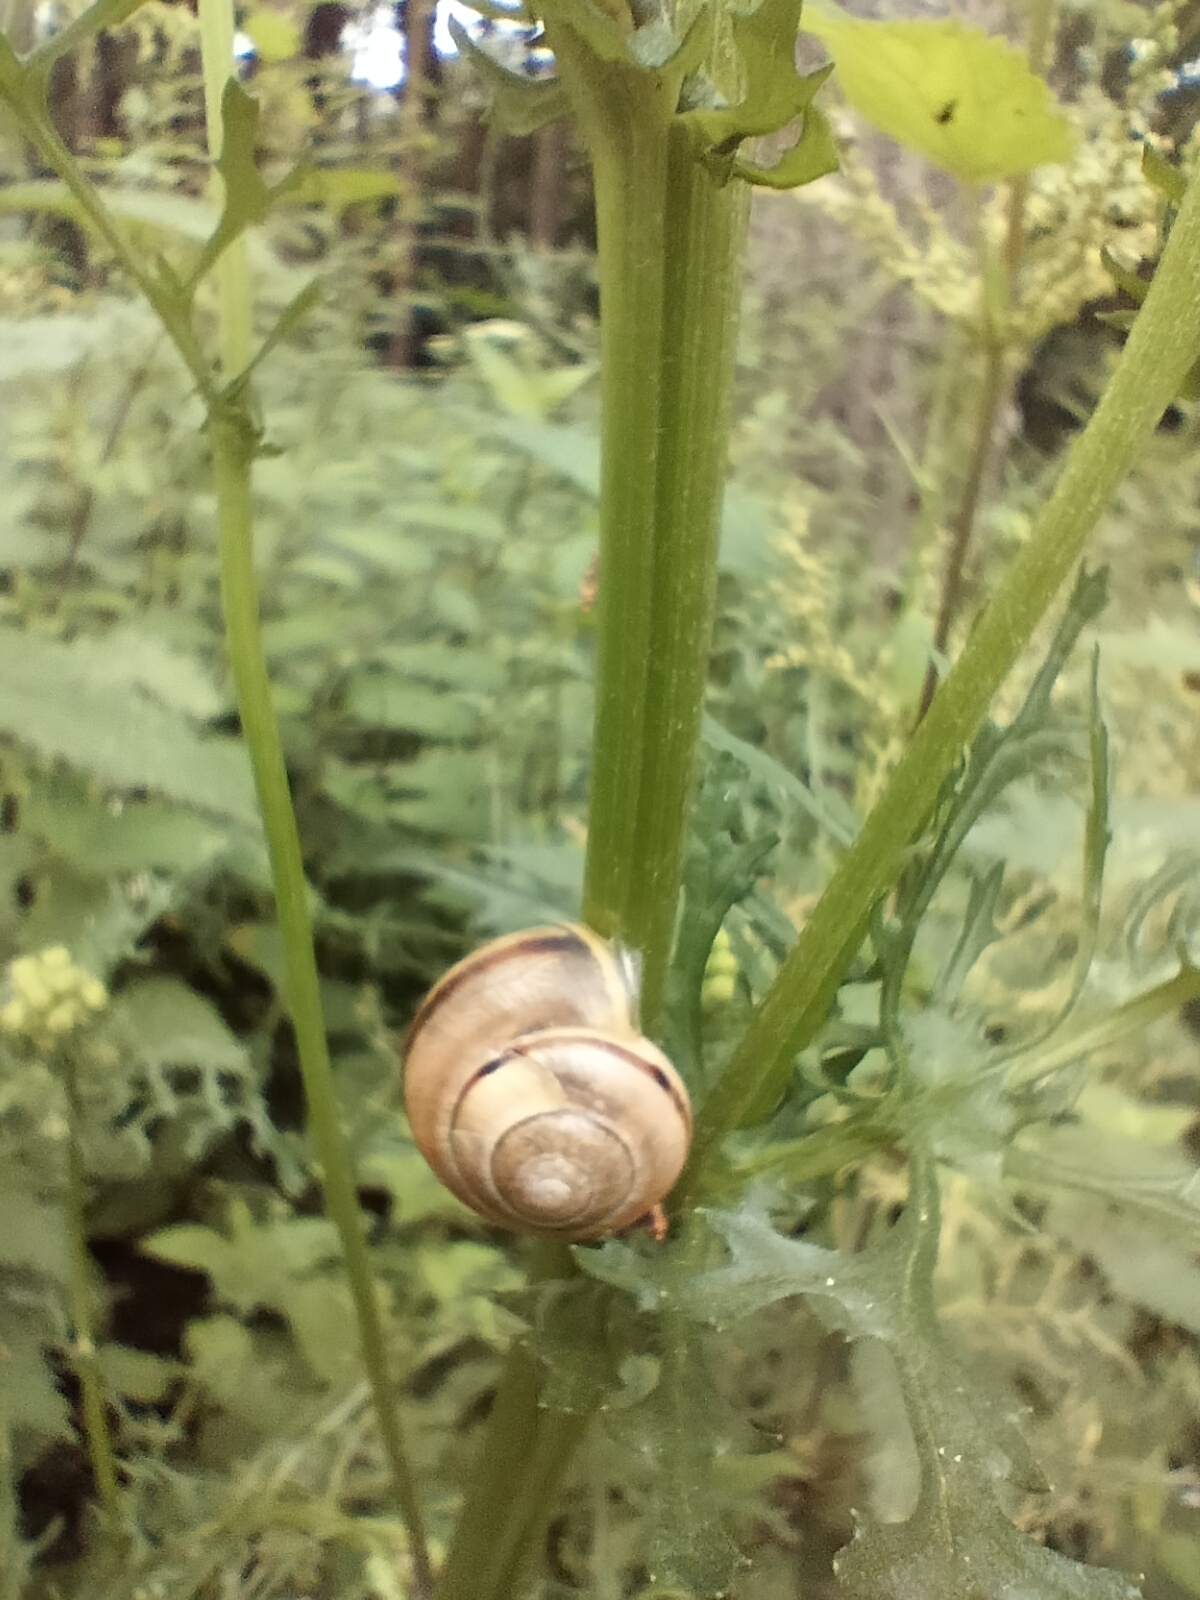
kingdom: Animalia
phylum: Mollusca
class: Gastropoda
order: Stylommatophora
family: Helicidae
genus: Cepaea
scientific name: Cepaea
